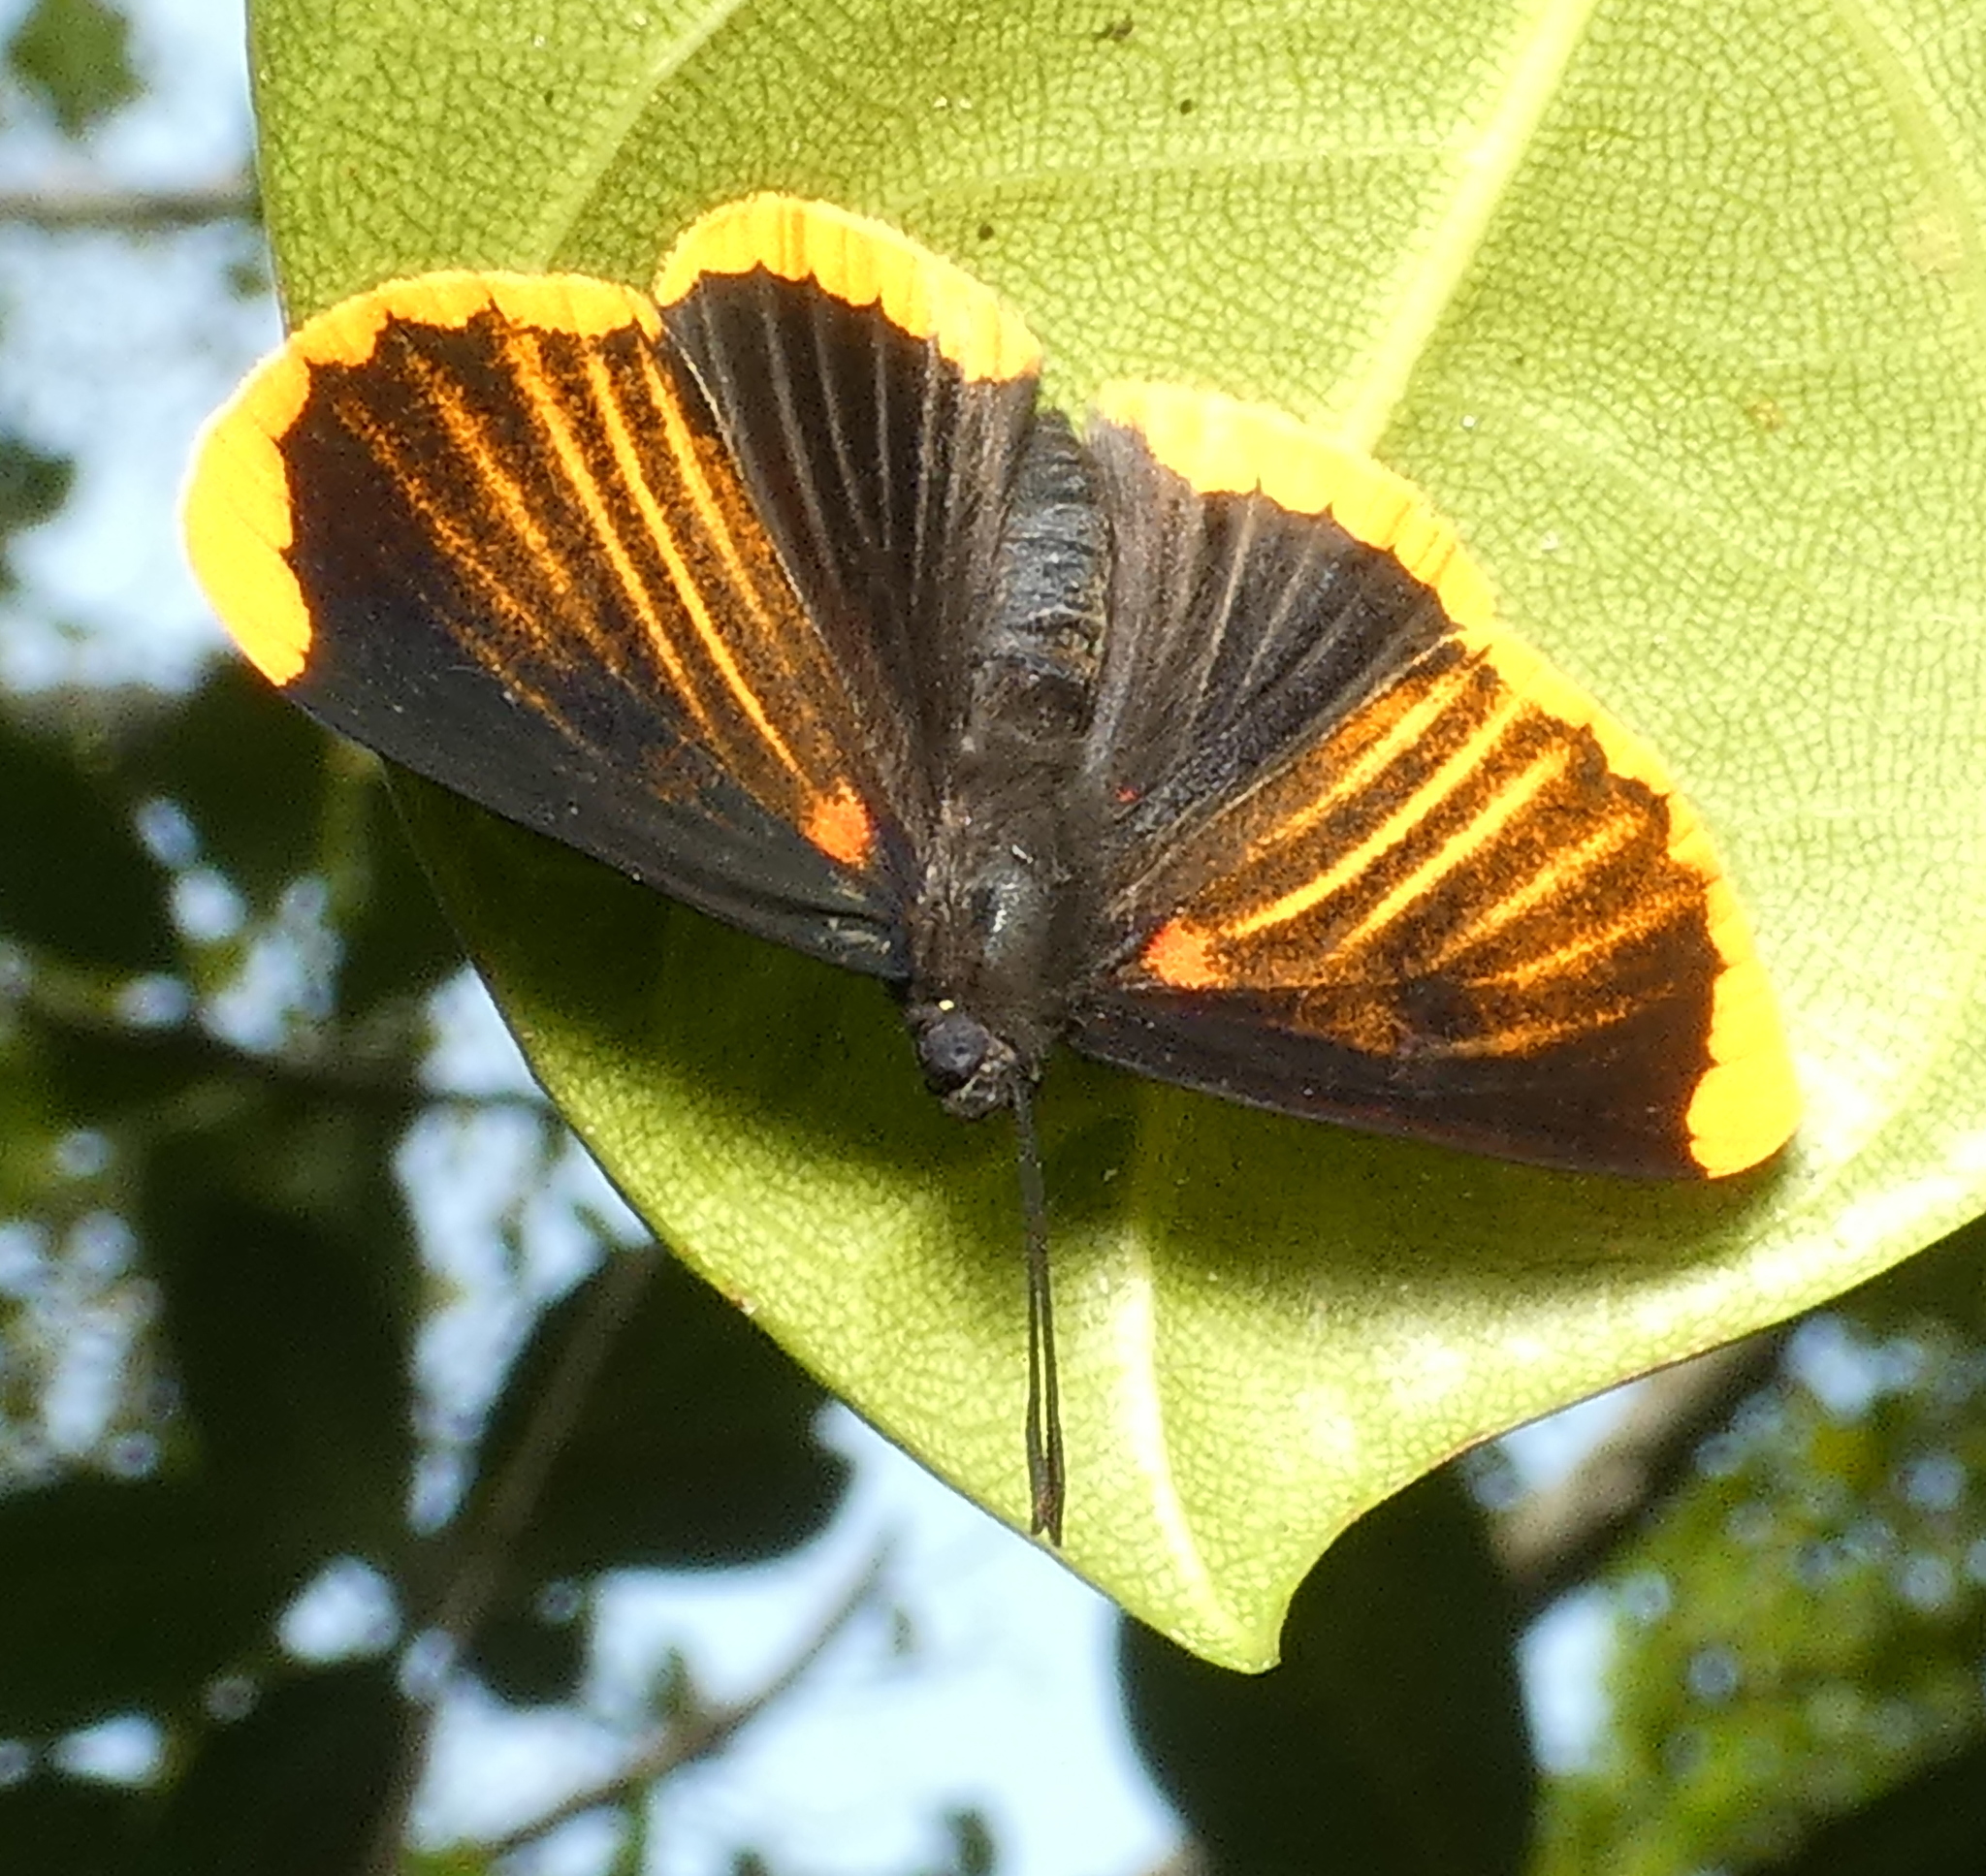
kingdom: Animalia
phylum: Arthropoda
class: Insecta
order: Lepidoptera
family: Lycaenidae
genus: Melanis
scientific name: Melanis smithiae
